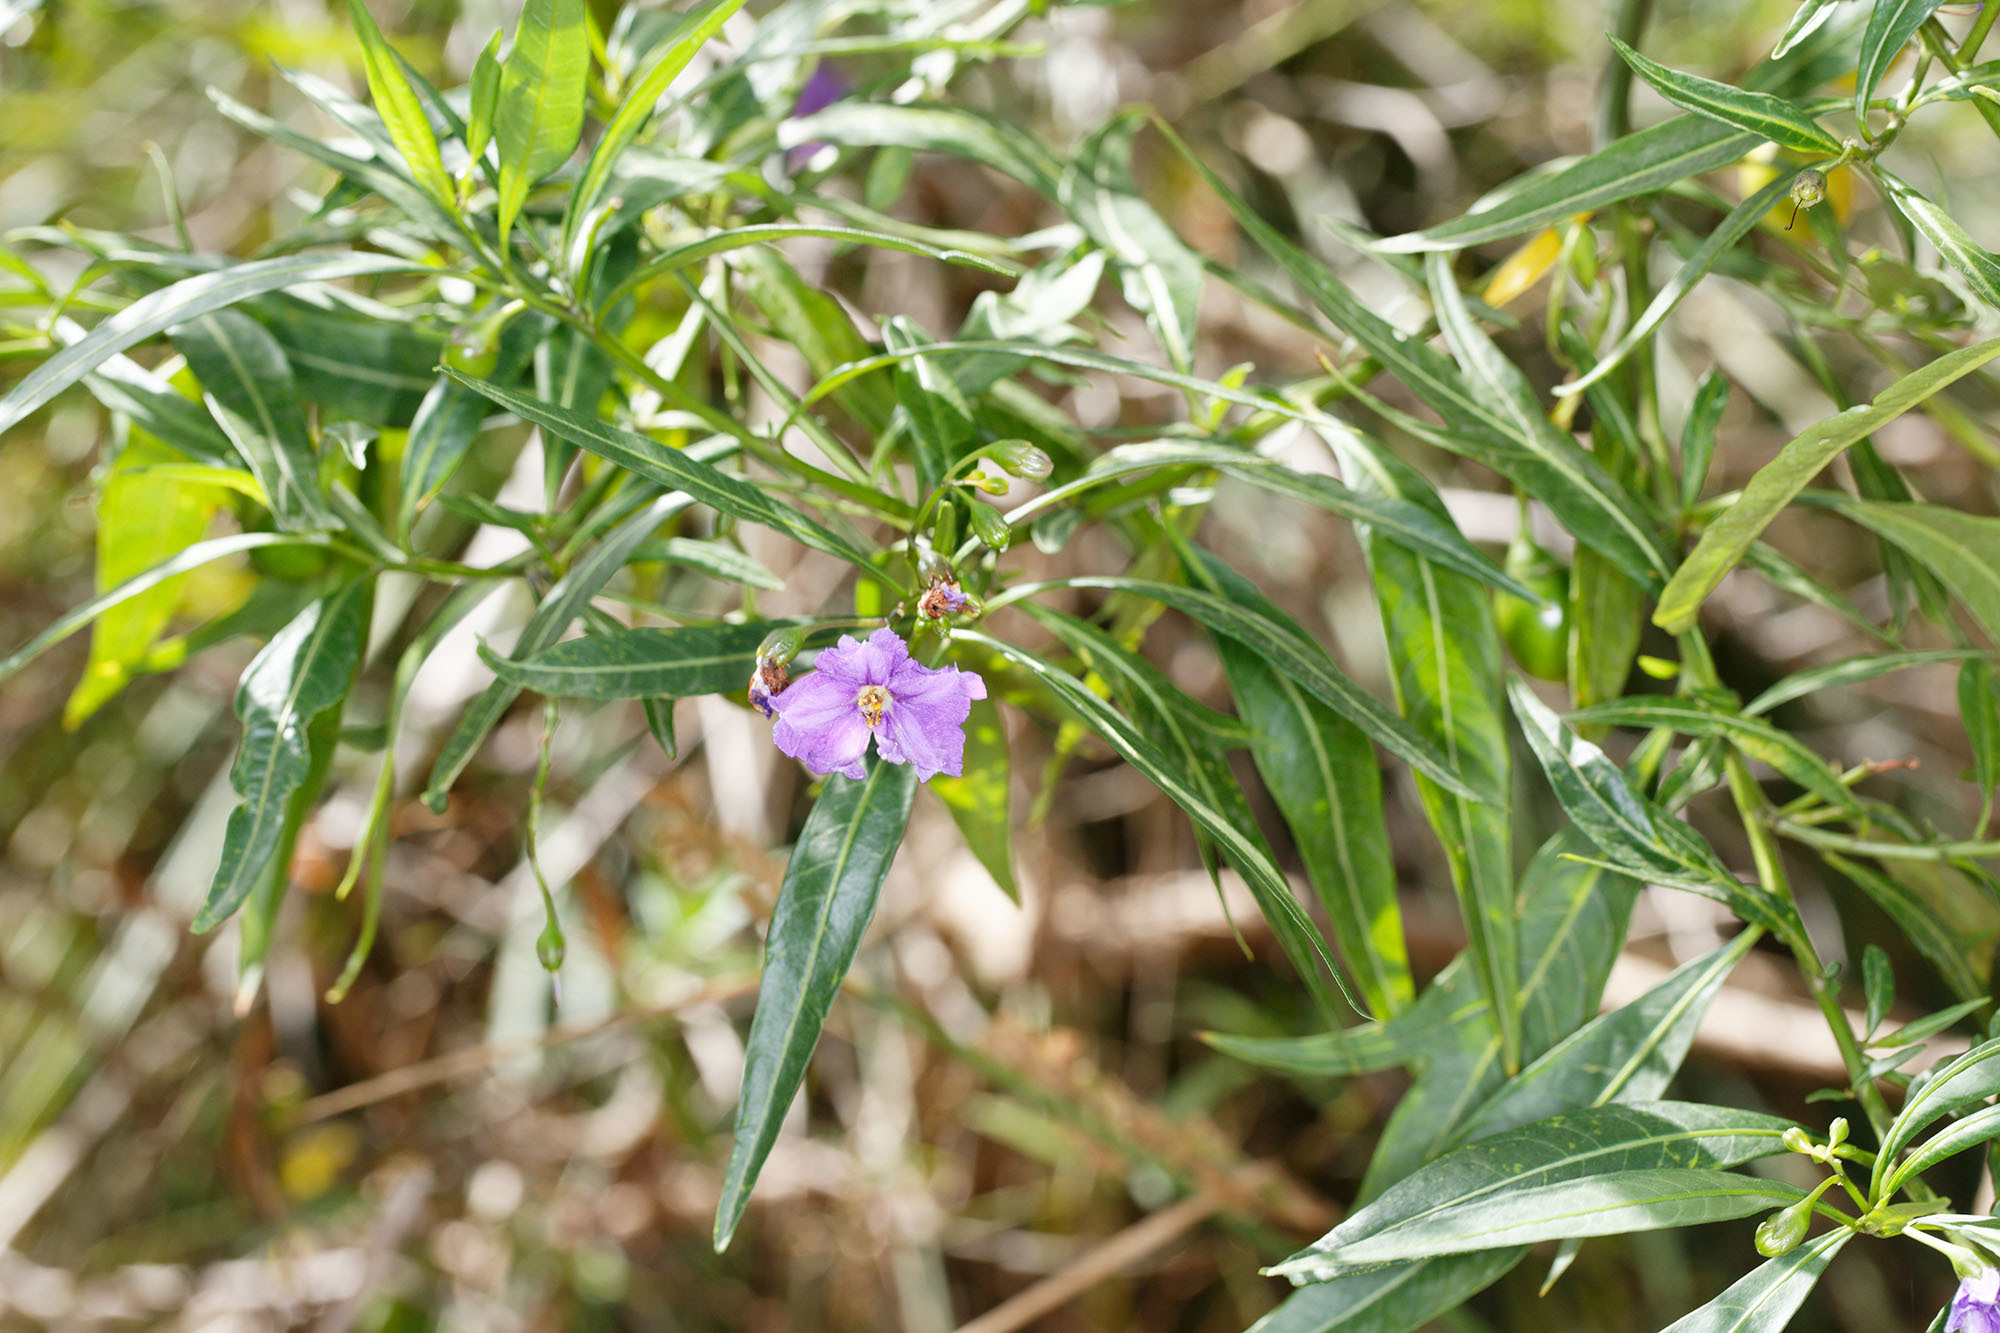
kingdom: Plantae
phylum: Tracheophyta
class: Magnoliopsida
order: Solanales
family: Solanaceae
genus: Solanum
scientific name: Solanum laciniatum
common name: Kangaroo-apple
